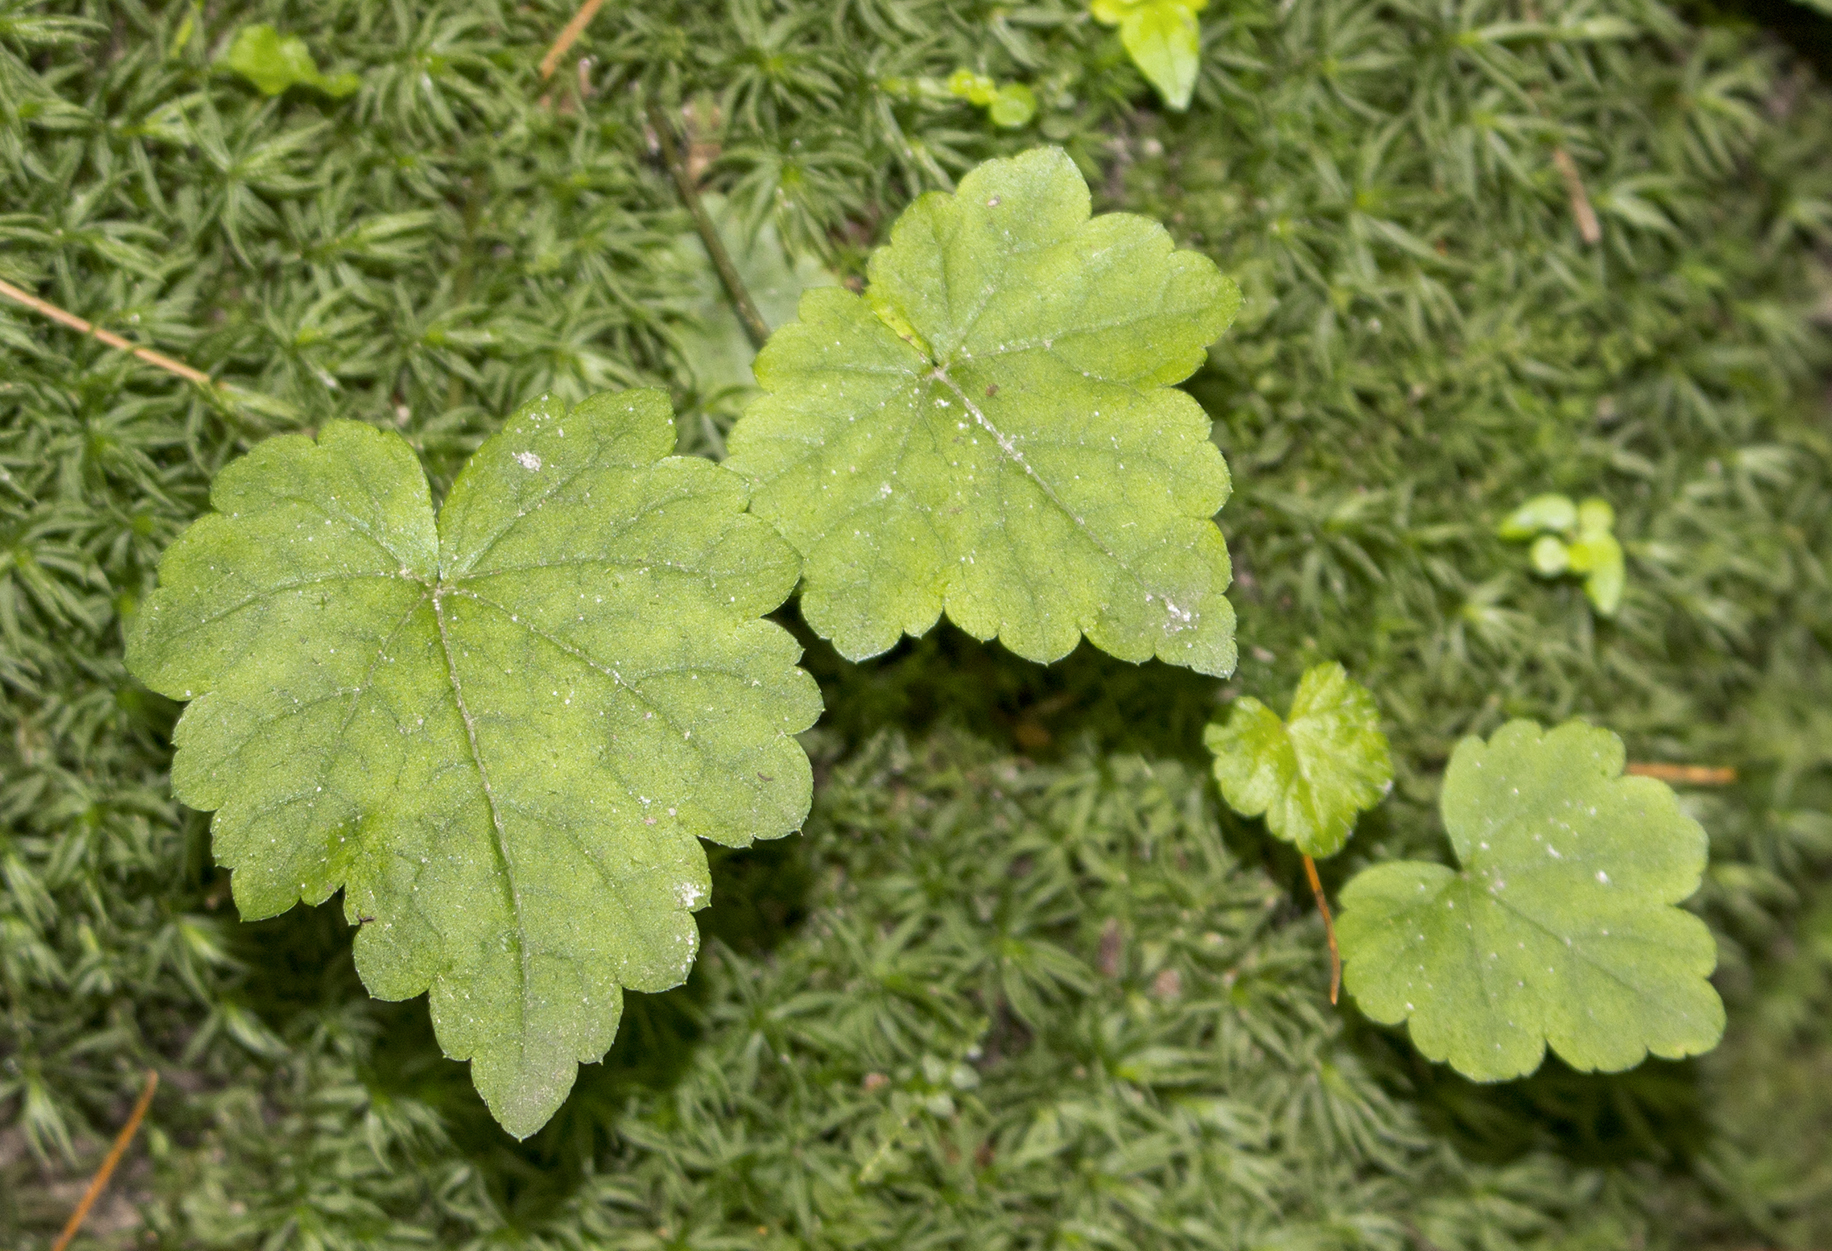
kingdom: Plantae
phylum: Tracheophyta
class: Magnoliopsida
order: Saxifragales
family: Saxifragaceae
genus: Mitella
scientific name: Mitella diphylla
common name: Coolwort
